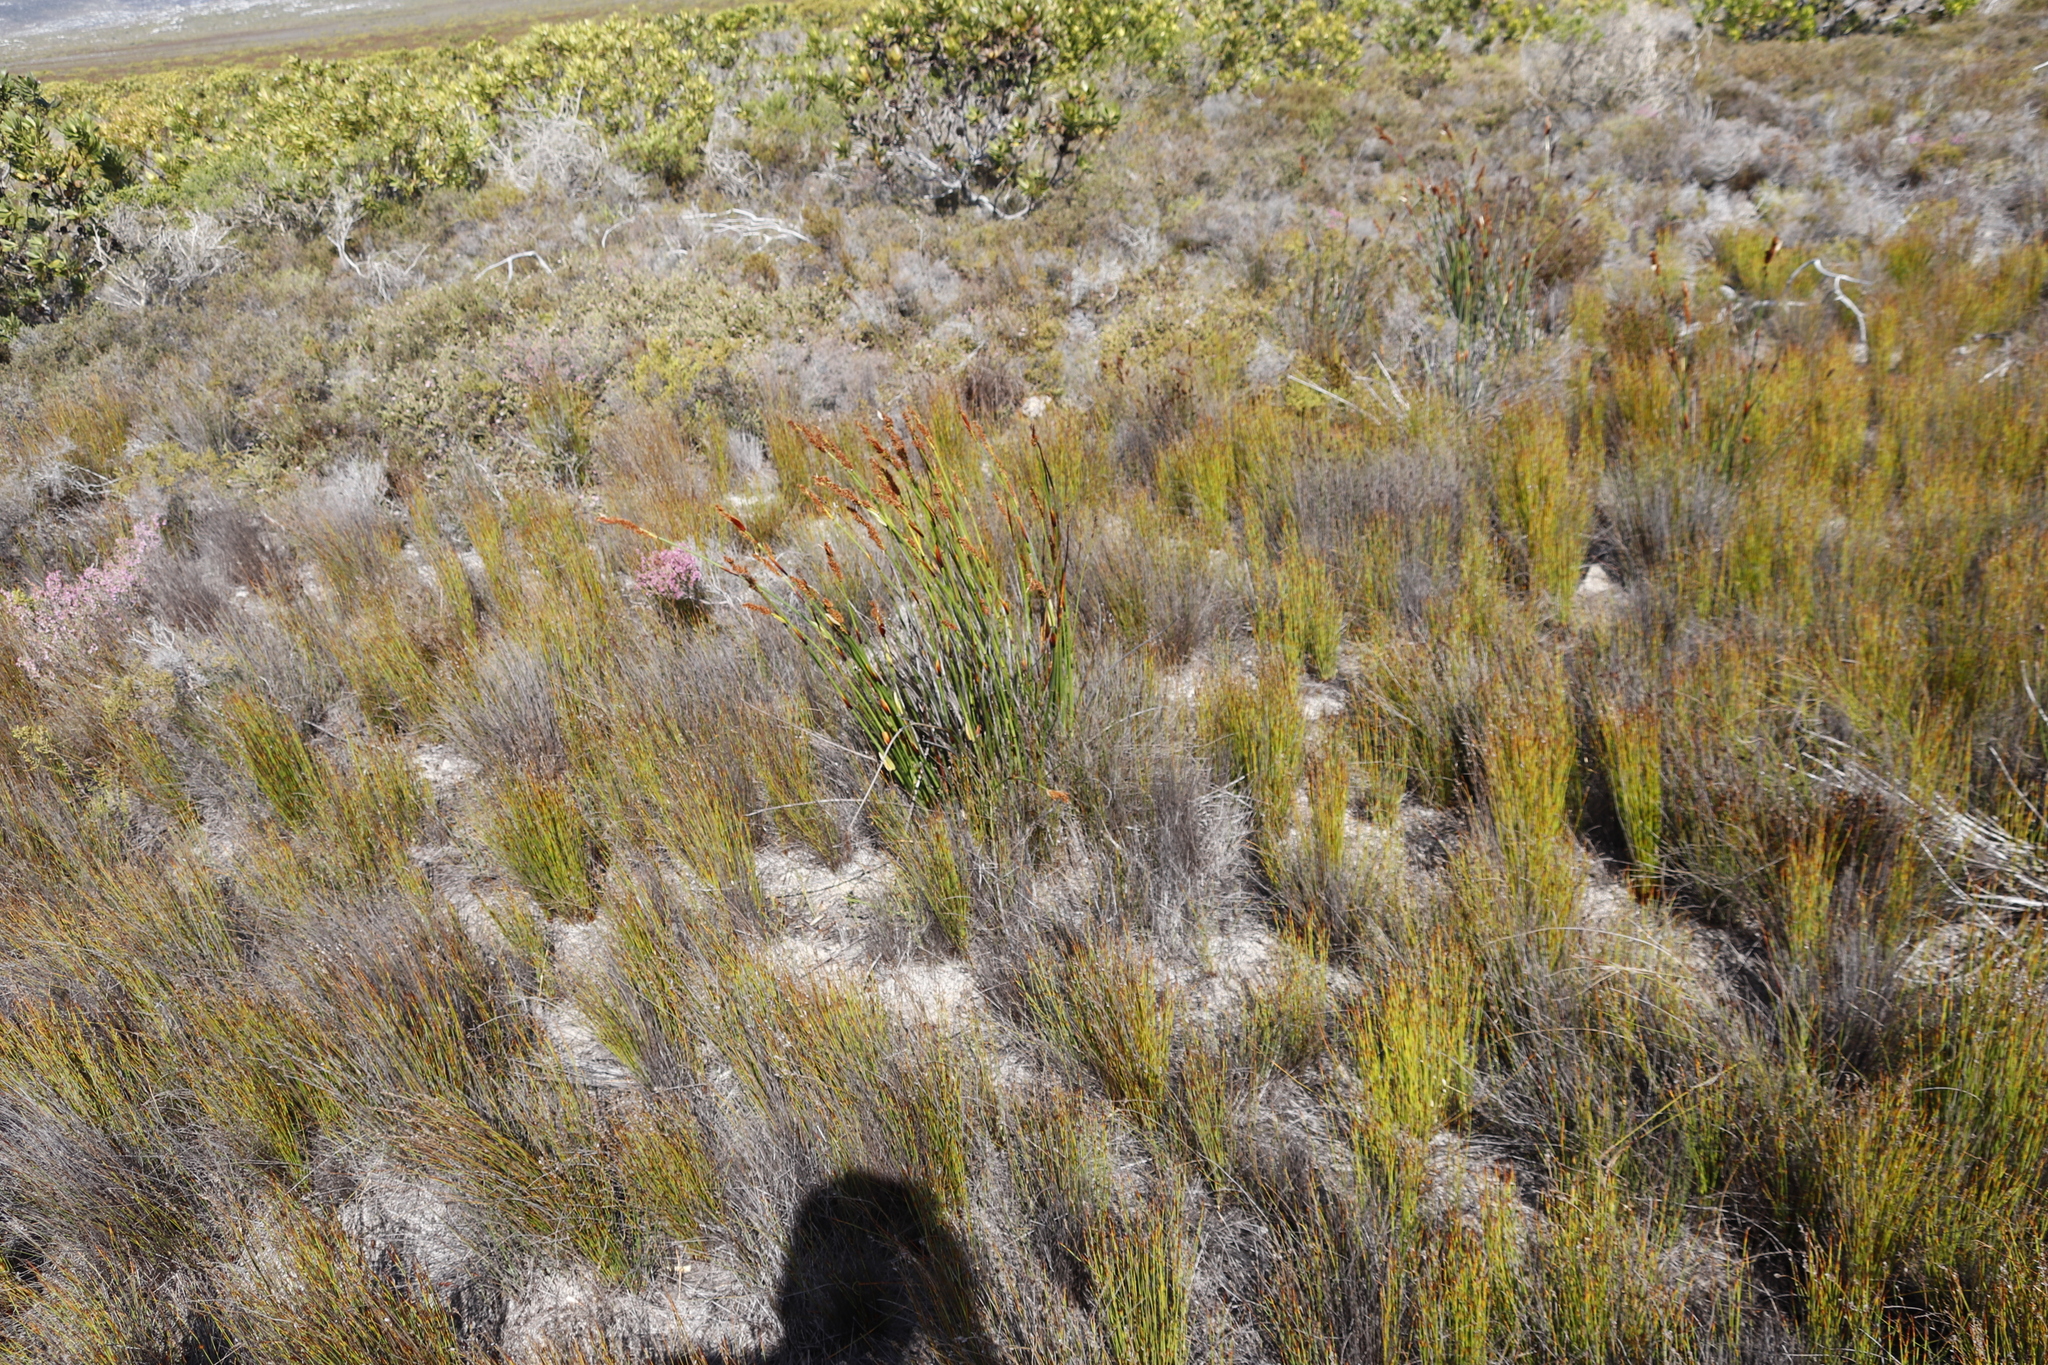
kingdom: Plantae
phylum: Tracheophyta
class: Liliopsida
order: Poales
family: Restionaceae
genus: Elegia
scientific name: Elegia cuspidata
